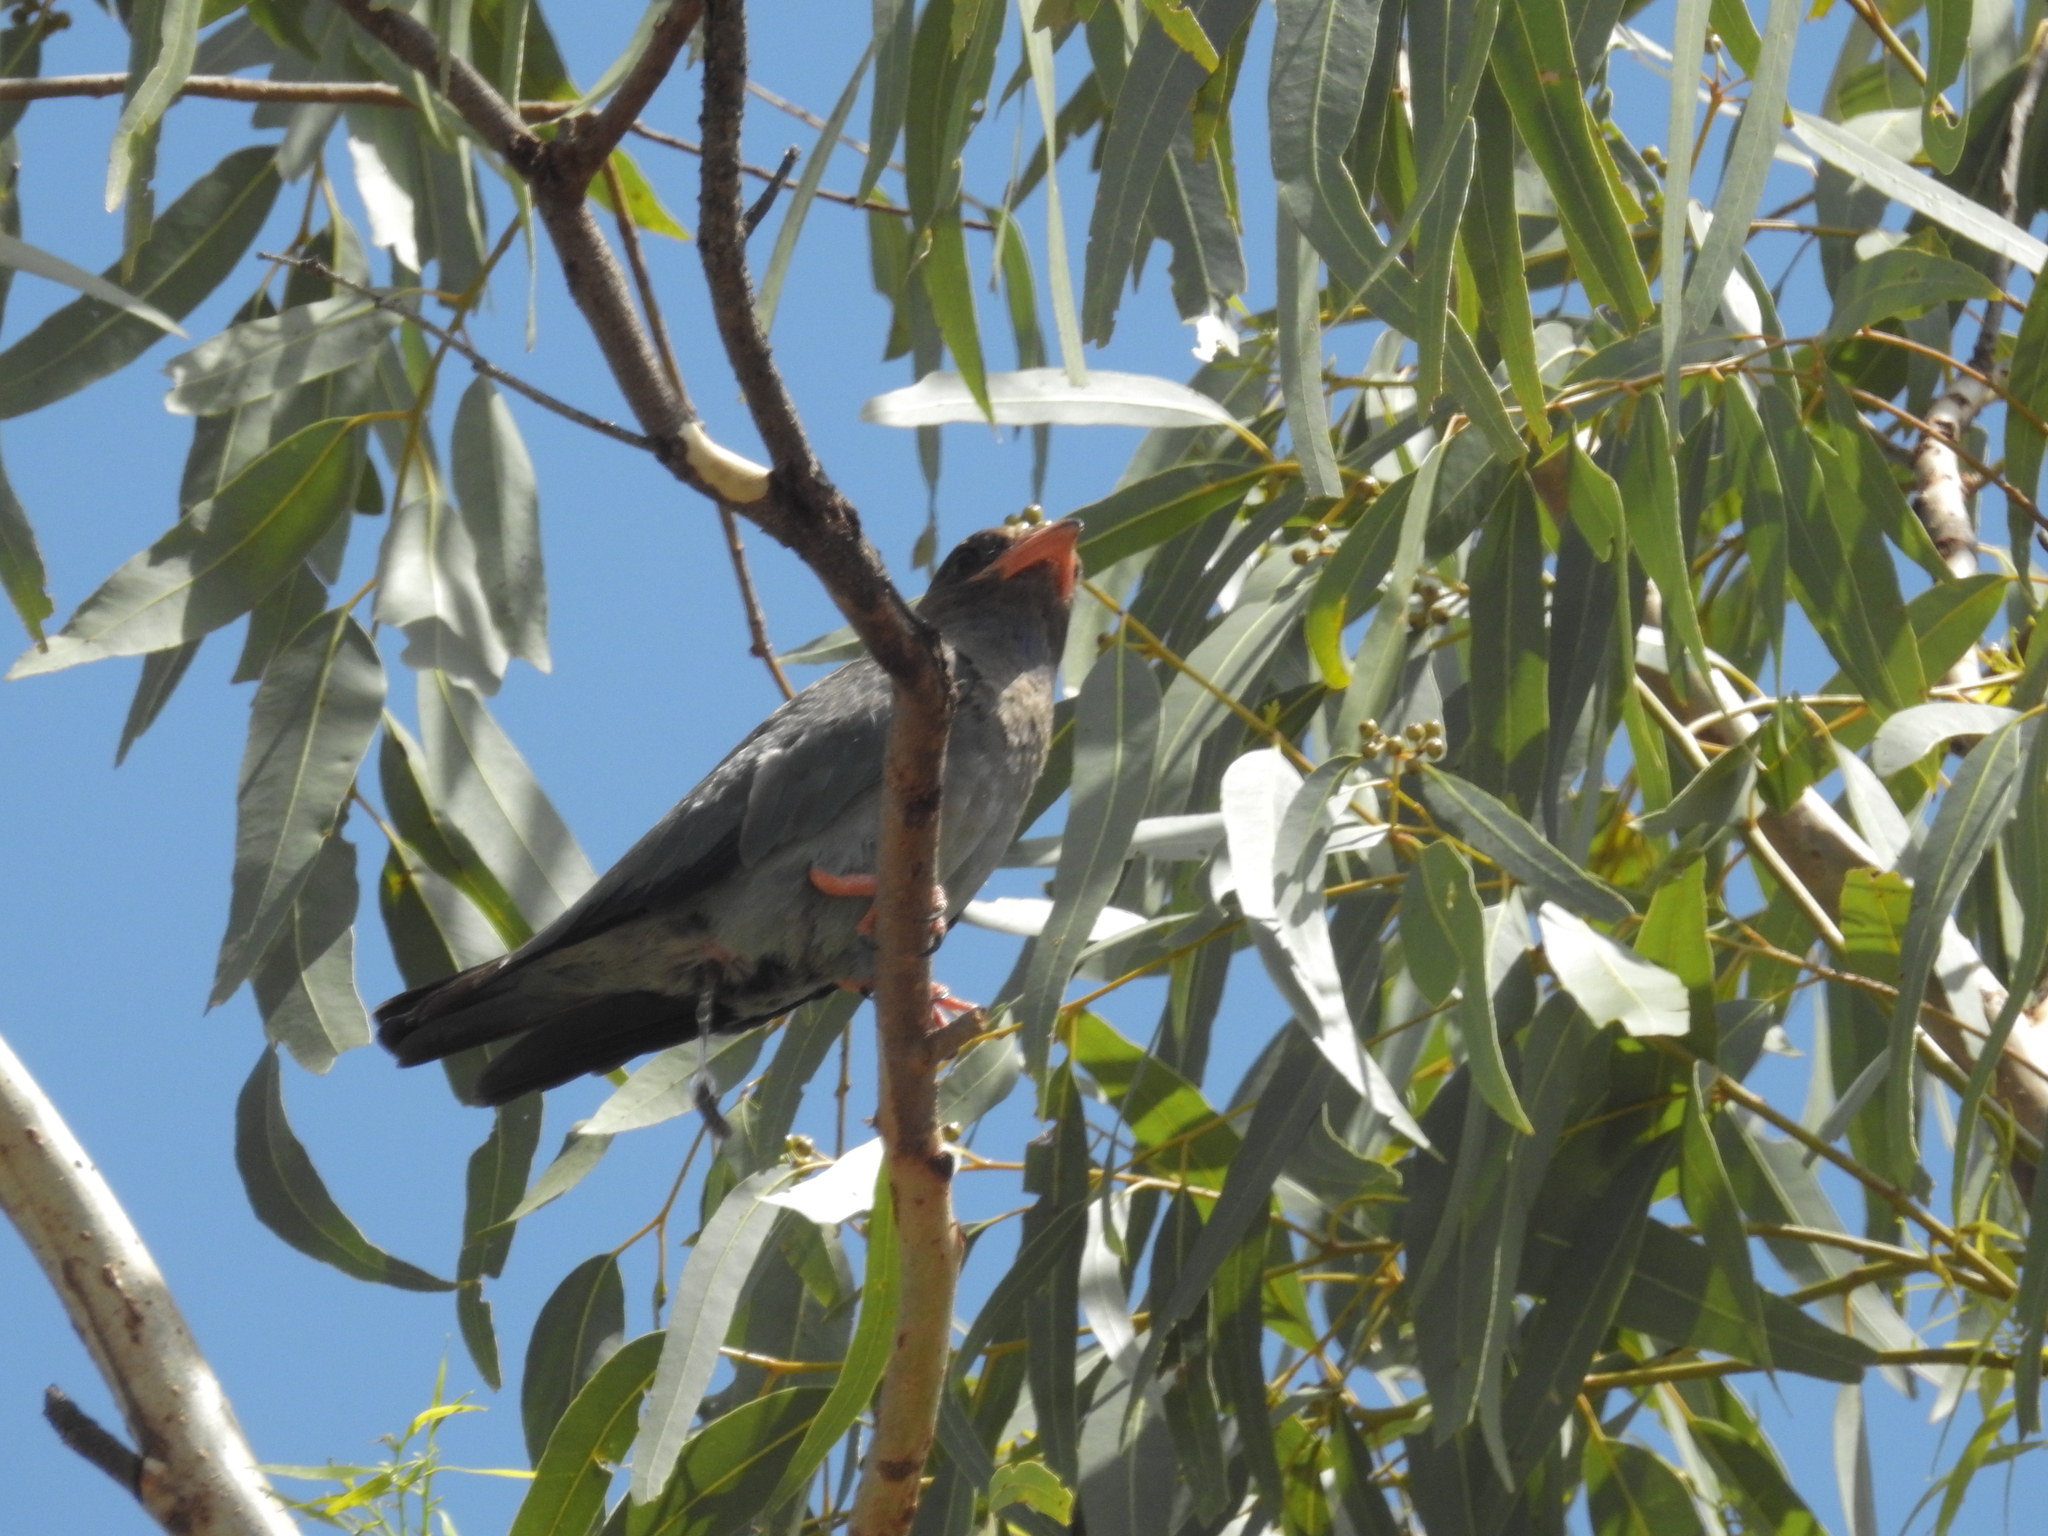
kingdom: Animalia
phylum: Chordata
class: Aves
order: Coraciiformes
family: Coraciidae
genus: Eurystomus
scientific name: Eurystomus orientalis
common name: Oriental dollarbird
